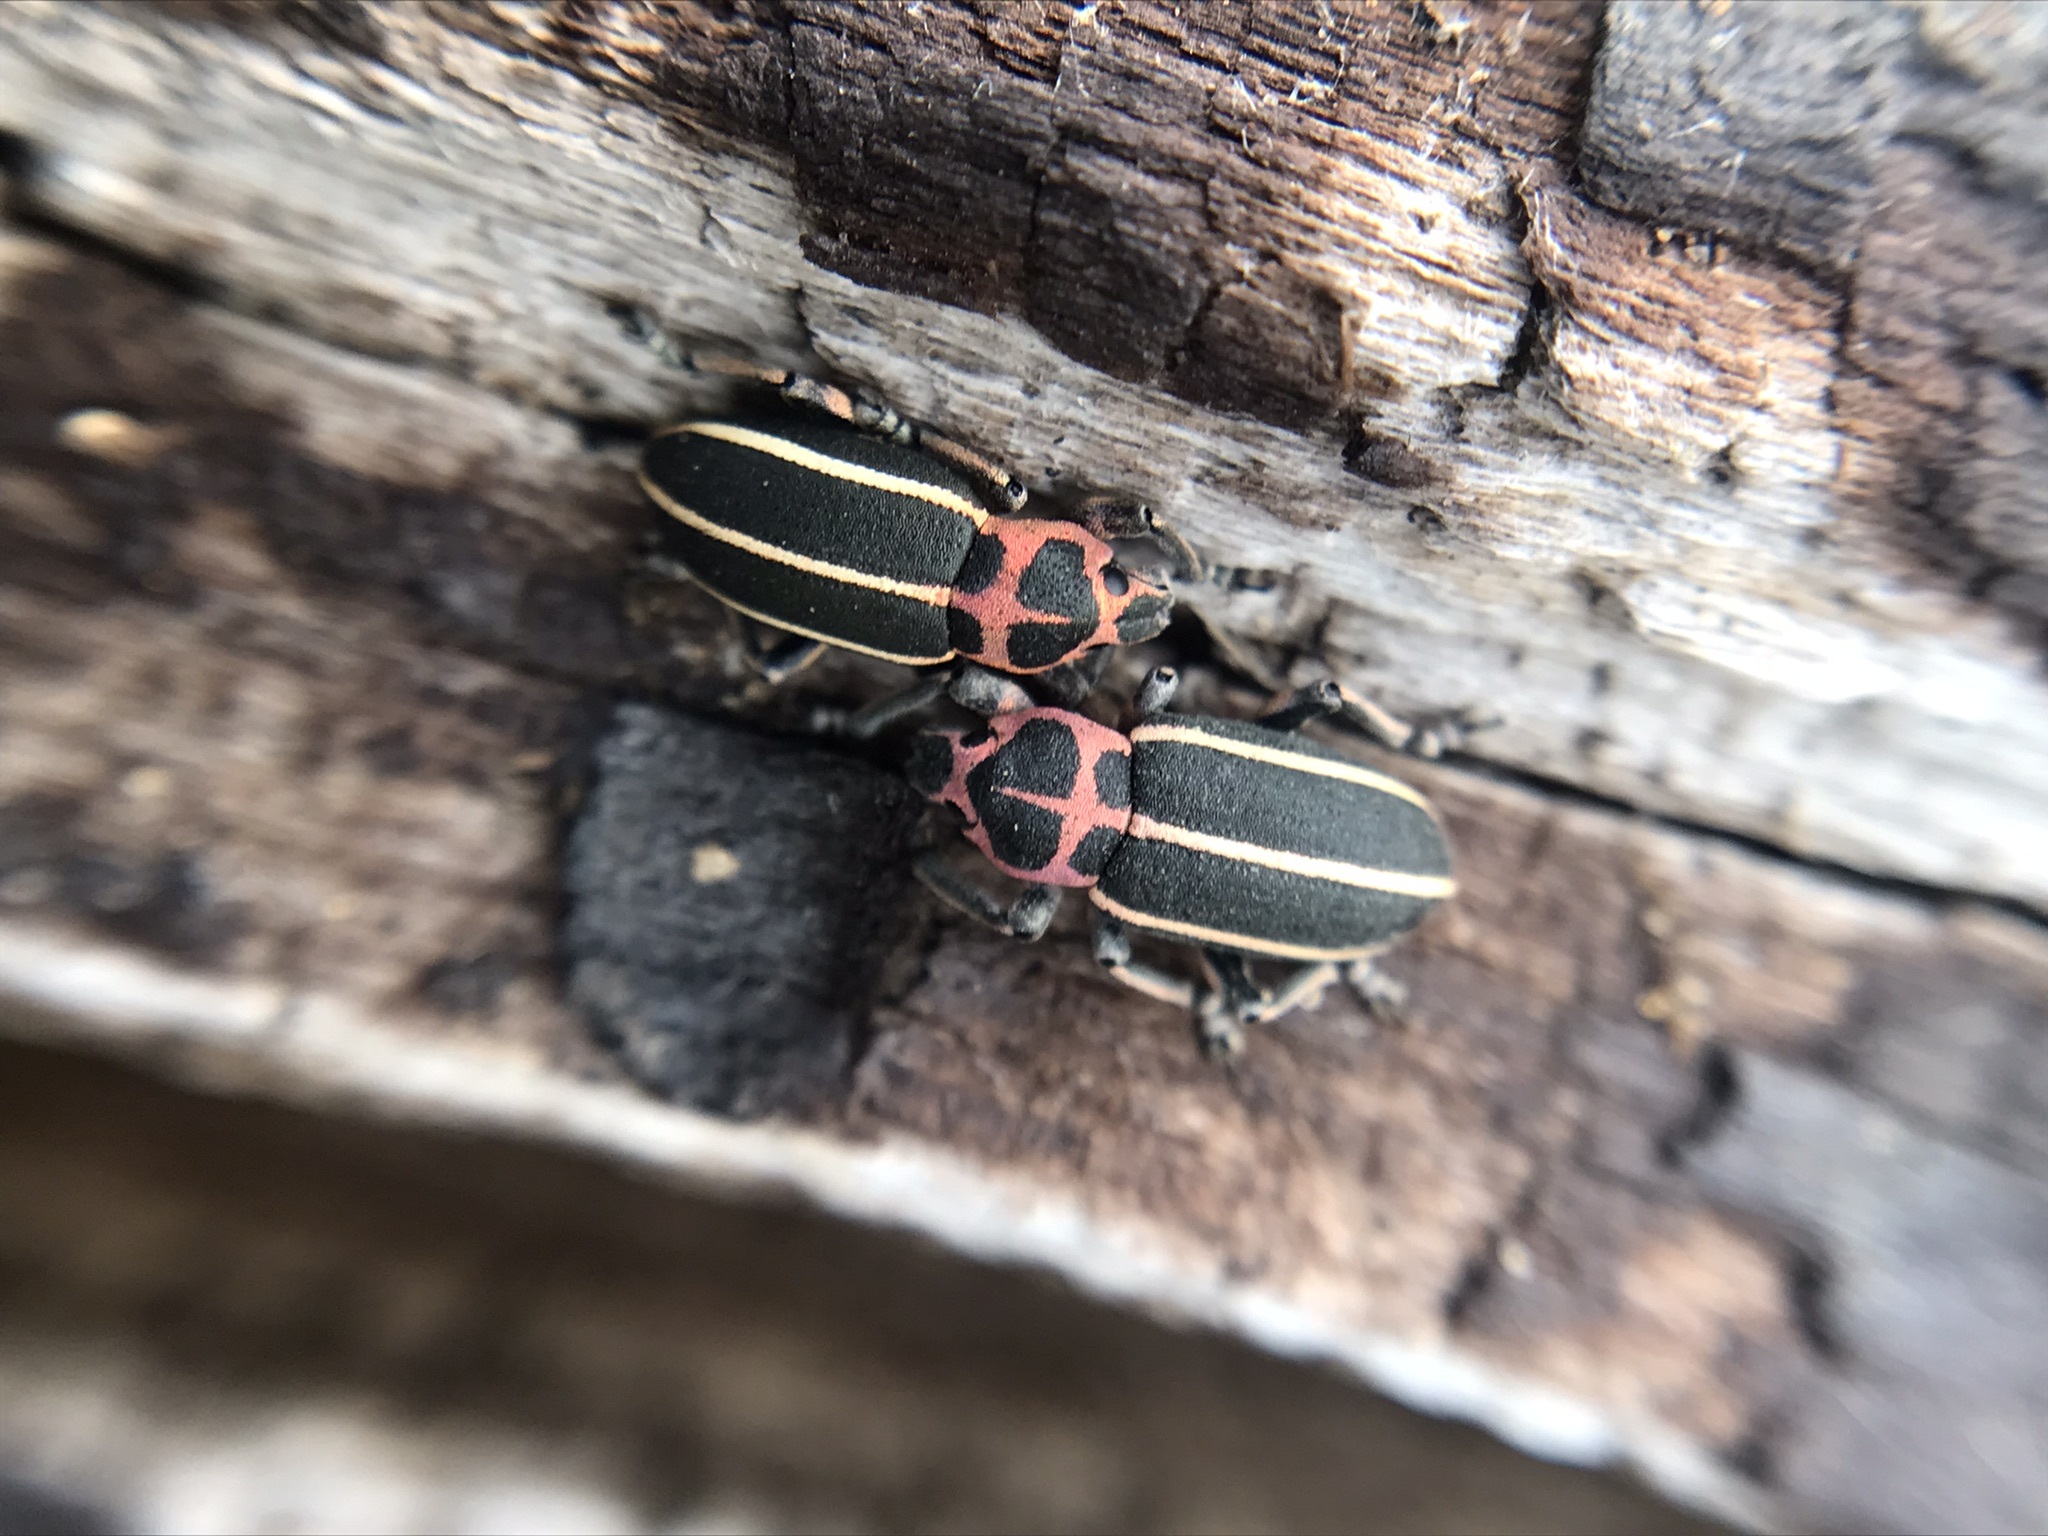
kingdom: Animalia
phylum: Arthropoda
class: Insecta
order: Coleoptera
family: Curculionidae
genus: Eudiagogus
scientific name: Eudiagogus episcopalis
